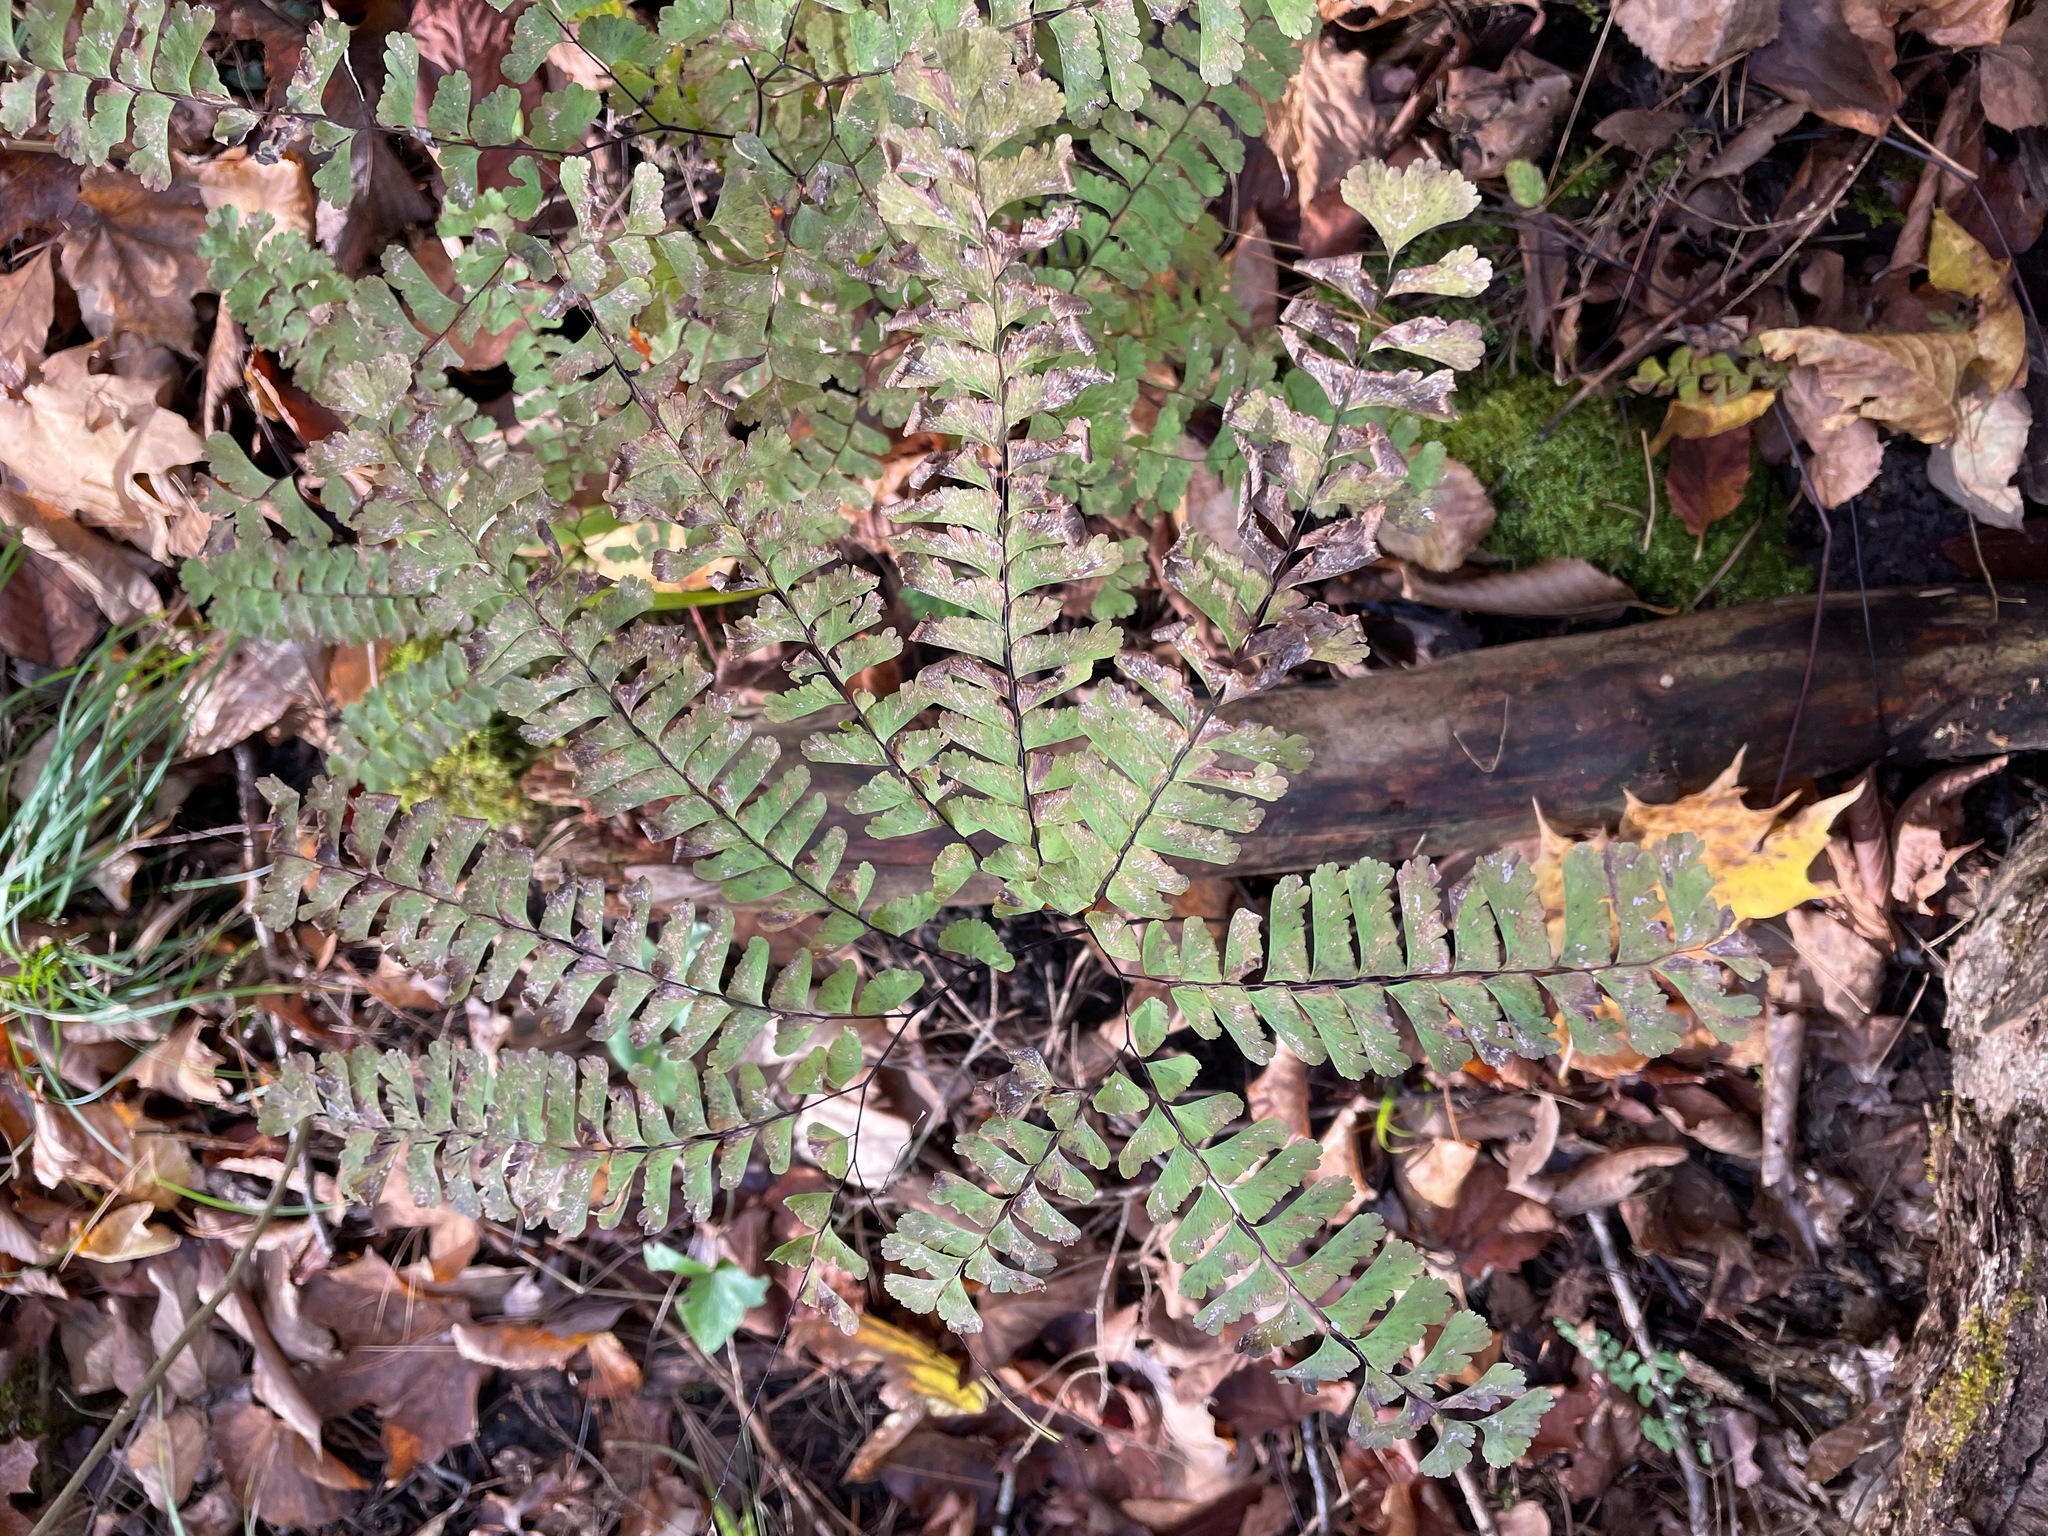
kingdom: Plantae
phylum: Tracheophyta
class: Polypodiopsida
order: Polypodiales
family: Pteridaceae
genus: Adiantum
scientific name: Adiantum pedatum
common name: Five-finger fern
